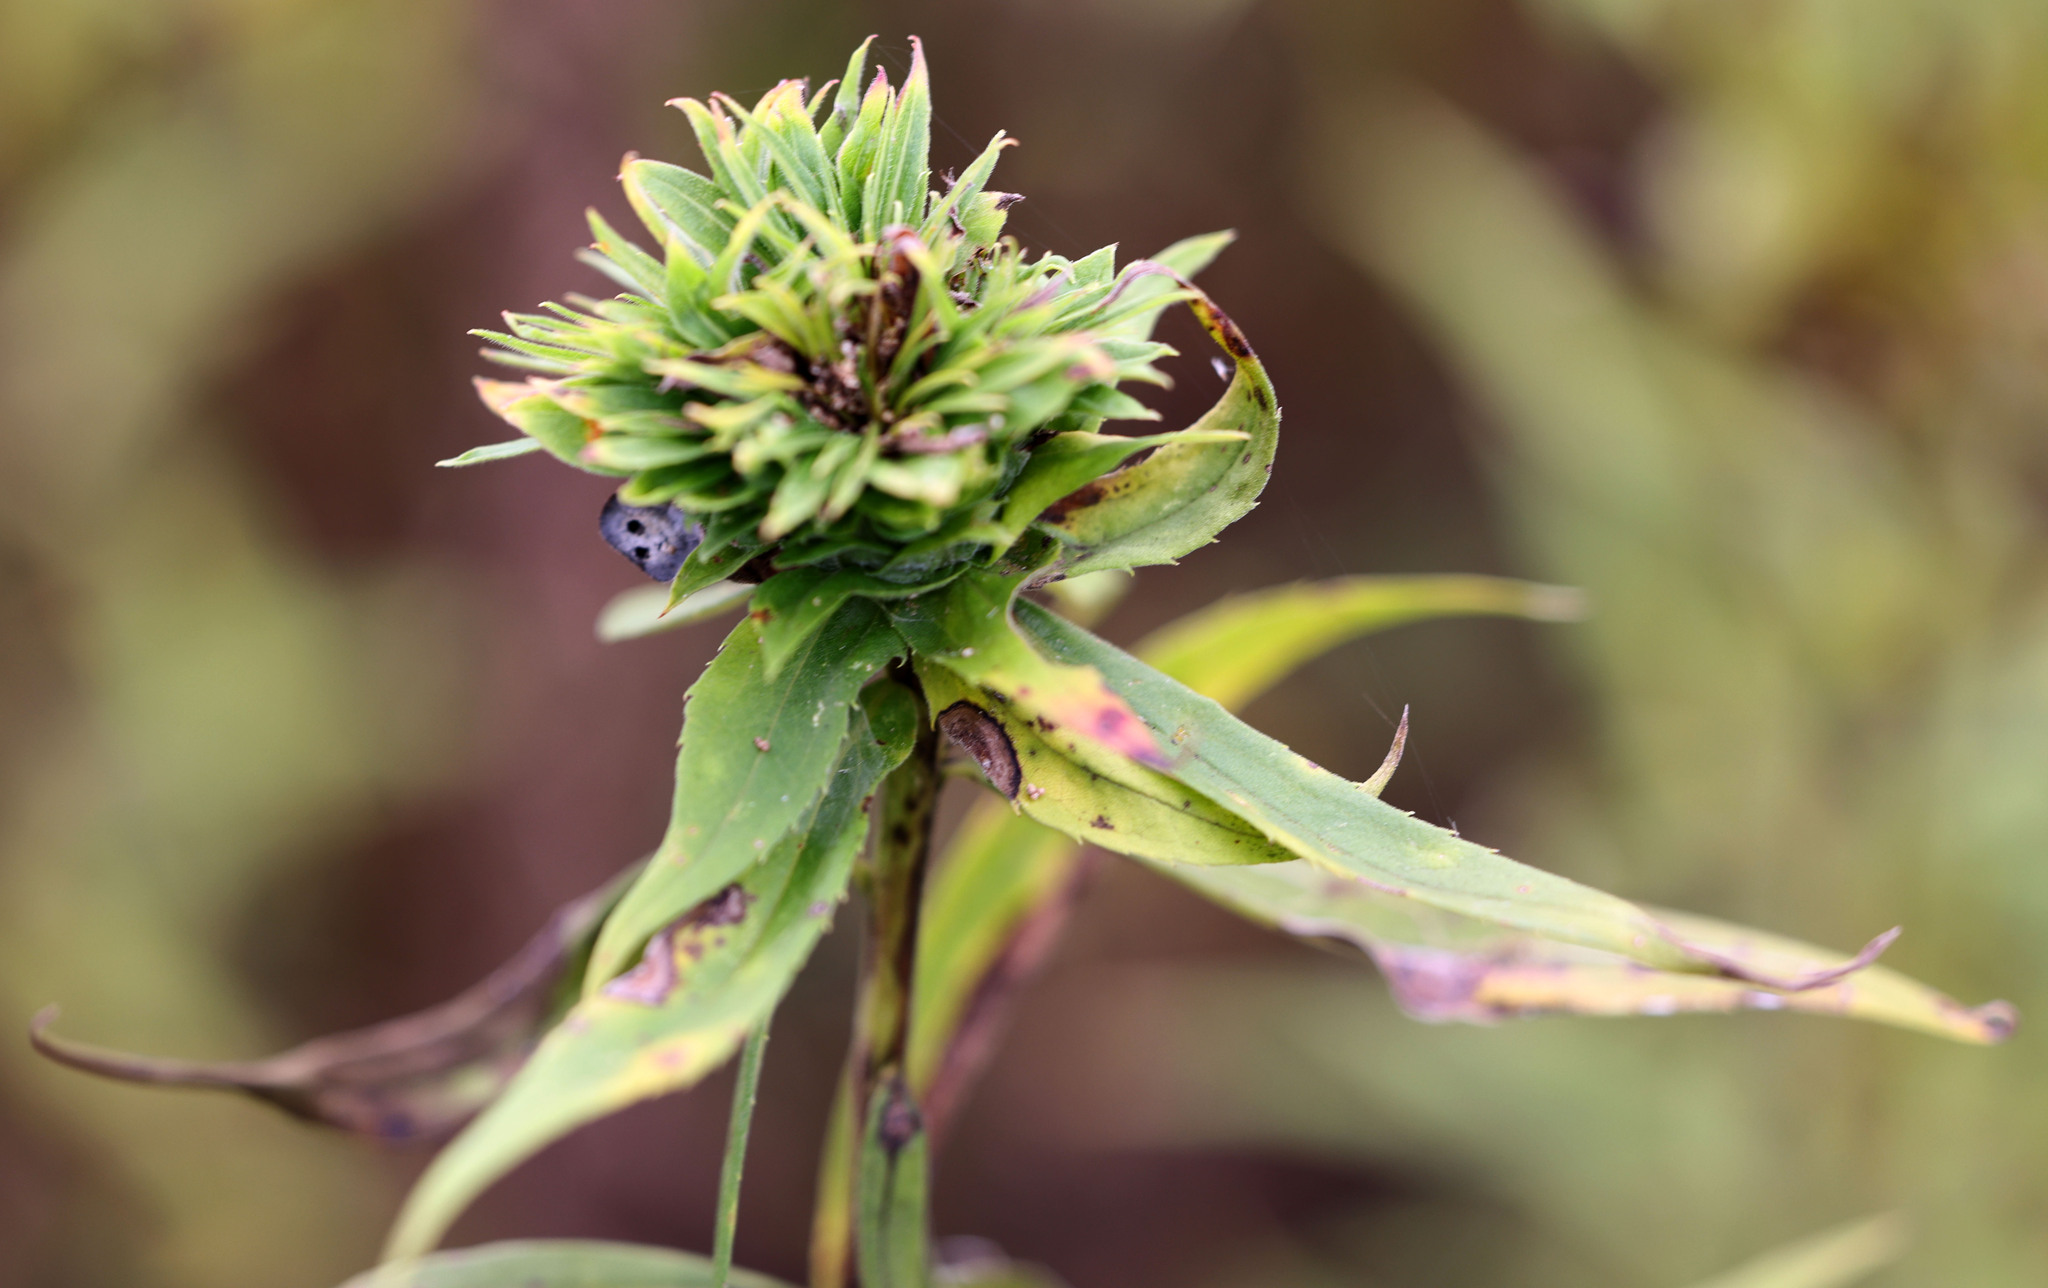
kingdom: Animalia
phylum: Arthropoda
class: Insecta
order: Diptera
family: Cecidomyiidae
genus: Rhopalomyia
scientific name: Rhopalomyia solidaginis
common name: Goldenrod bunch gall midge
